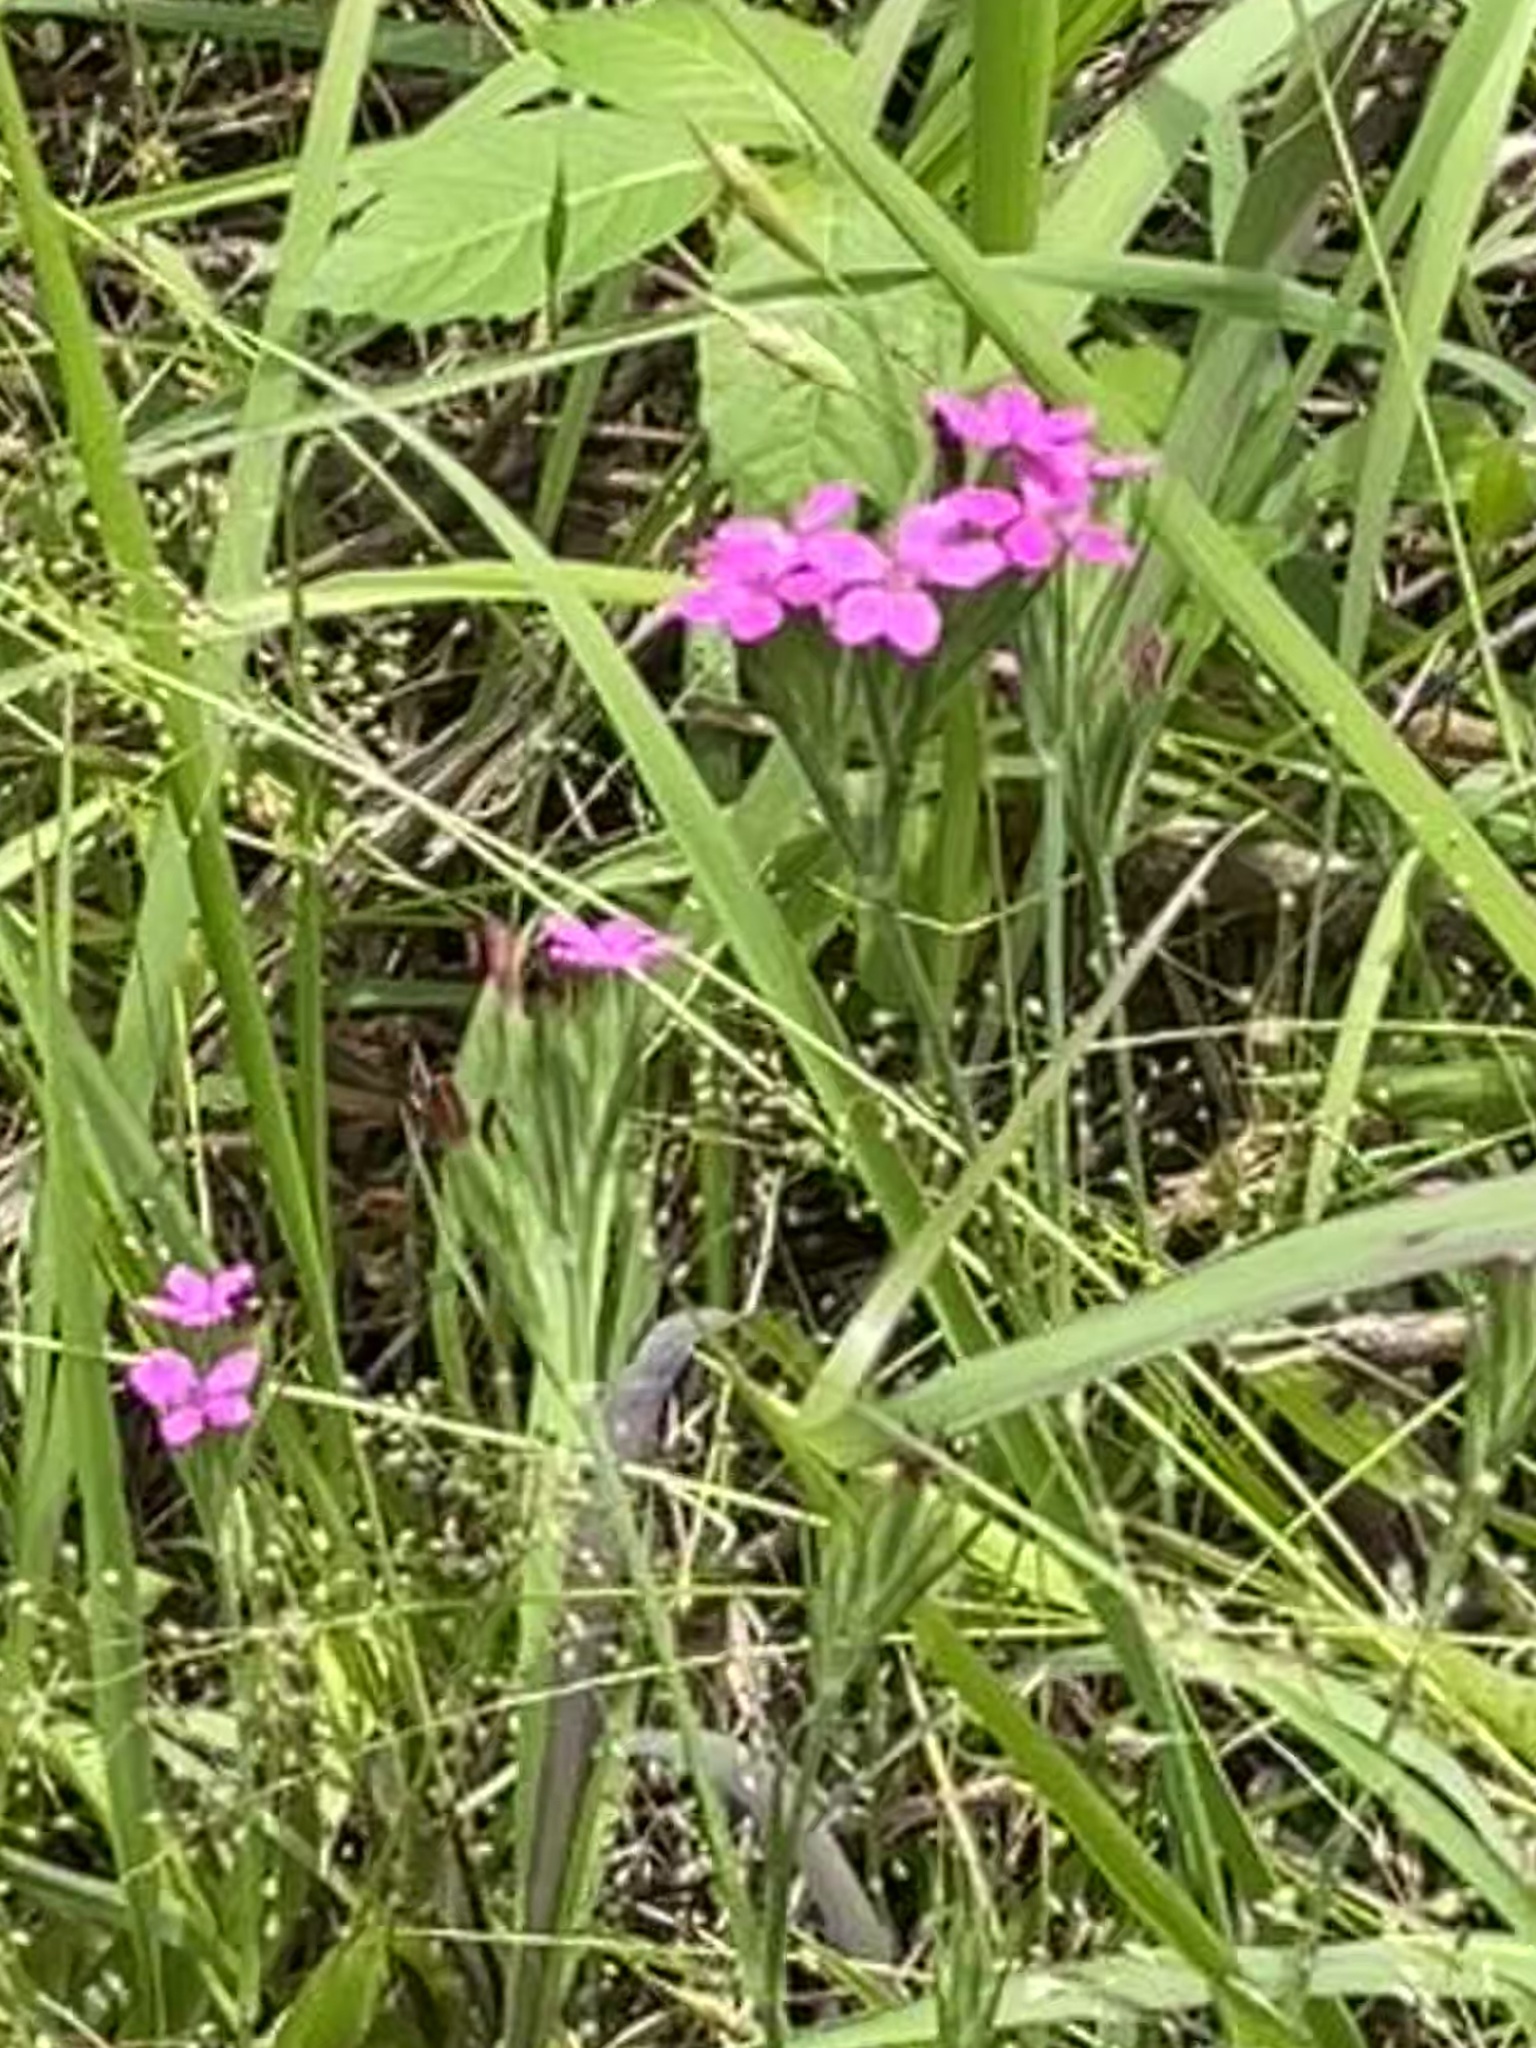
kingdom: Plantae
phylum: Tracheophyta
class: Magnoliopsida
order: Caryophyllales
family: Caryophyllaceae
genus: Dianthus
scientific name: Dianthus armeria
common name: Deptford pink
